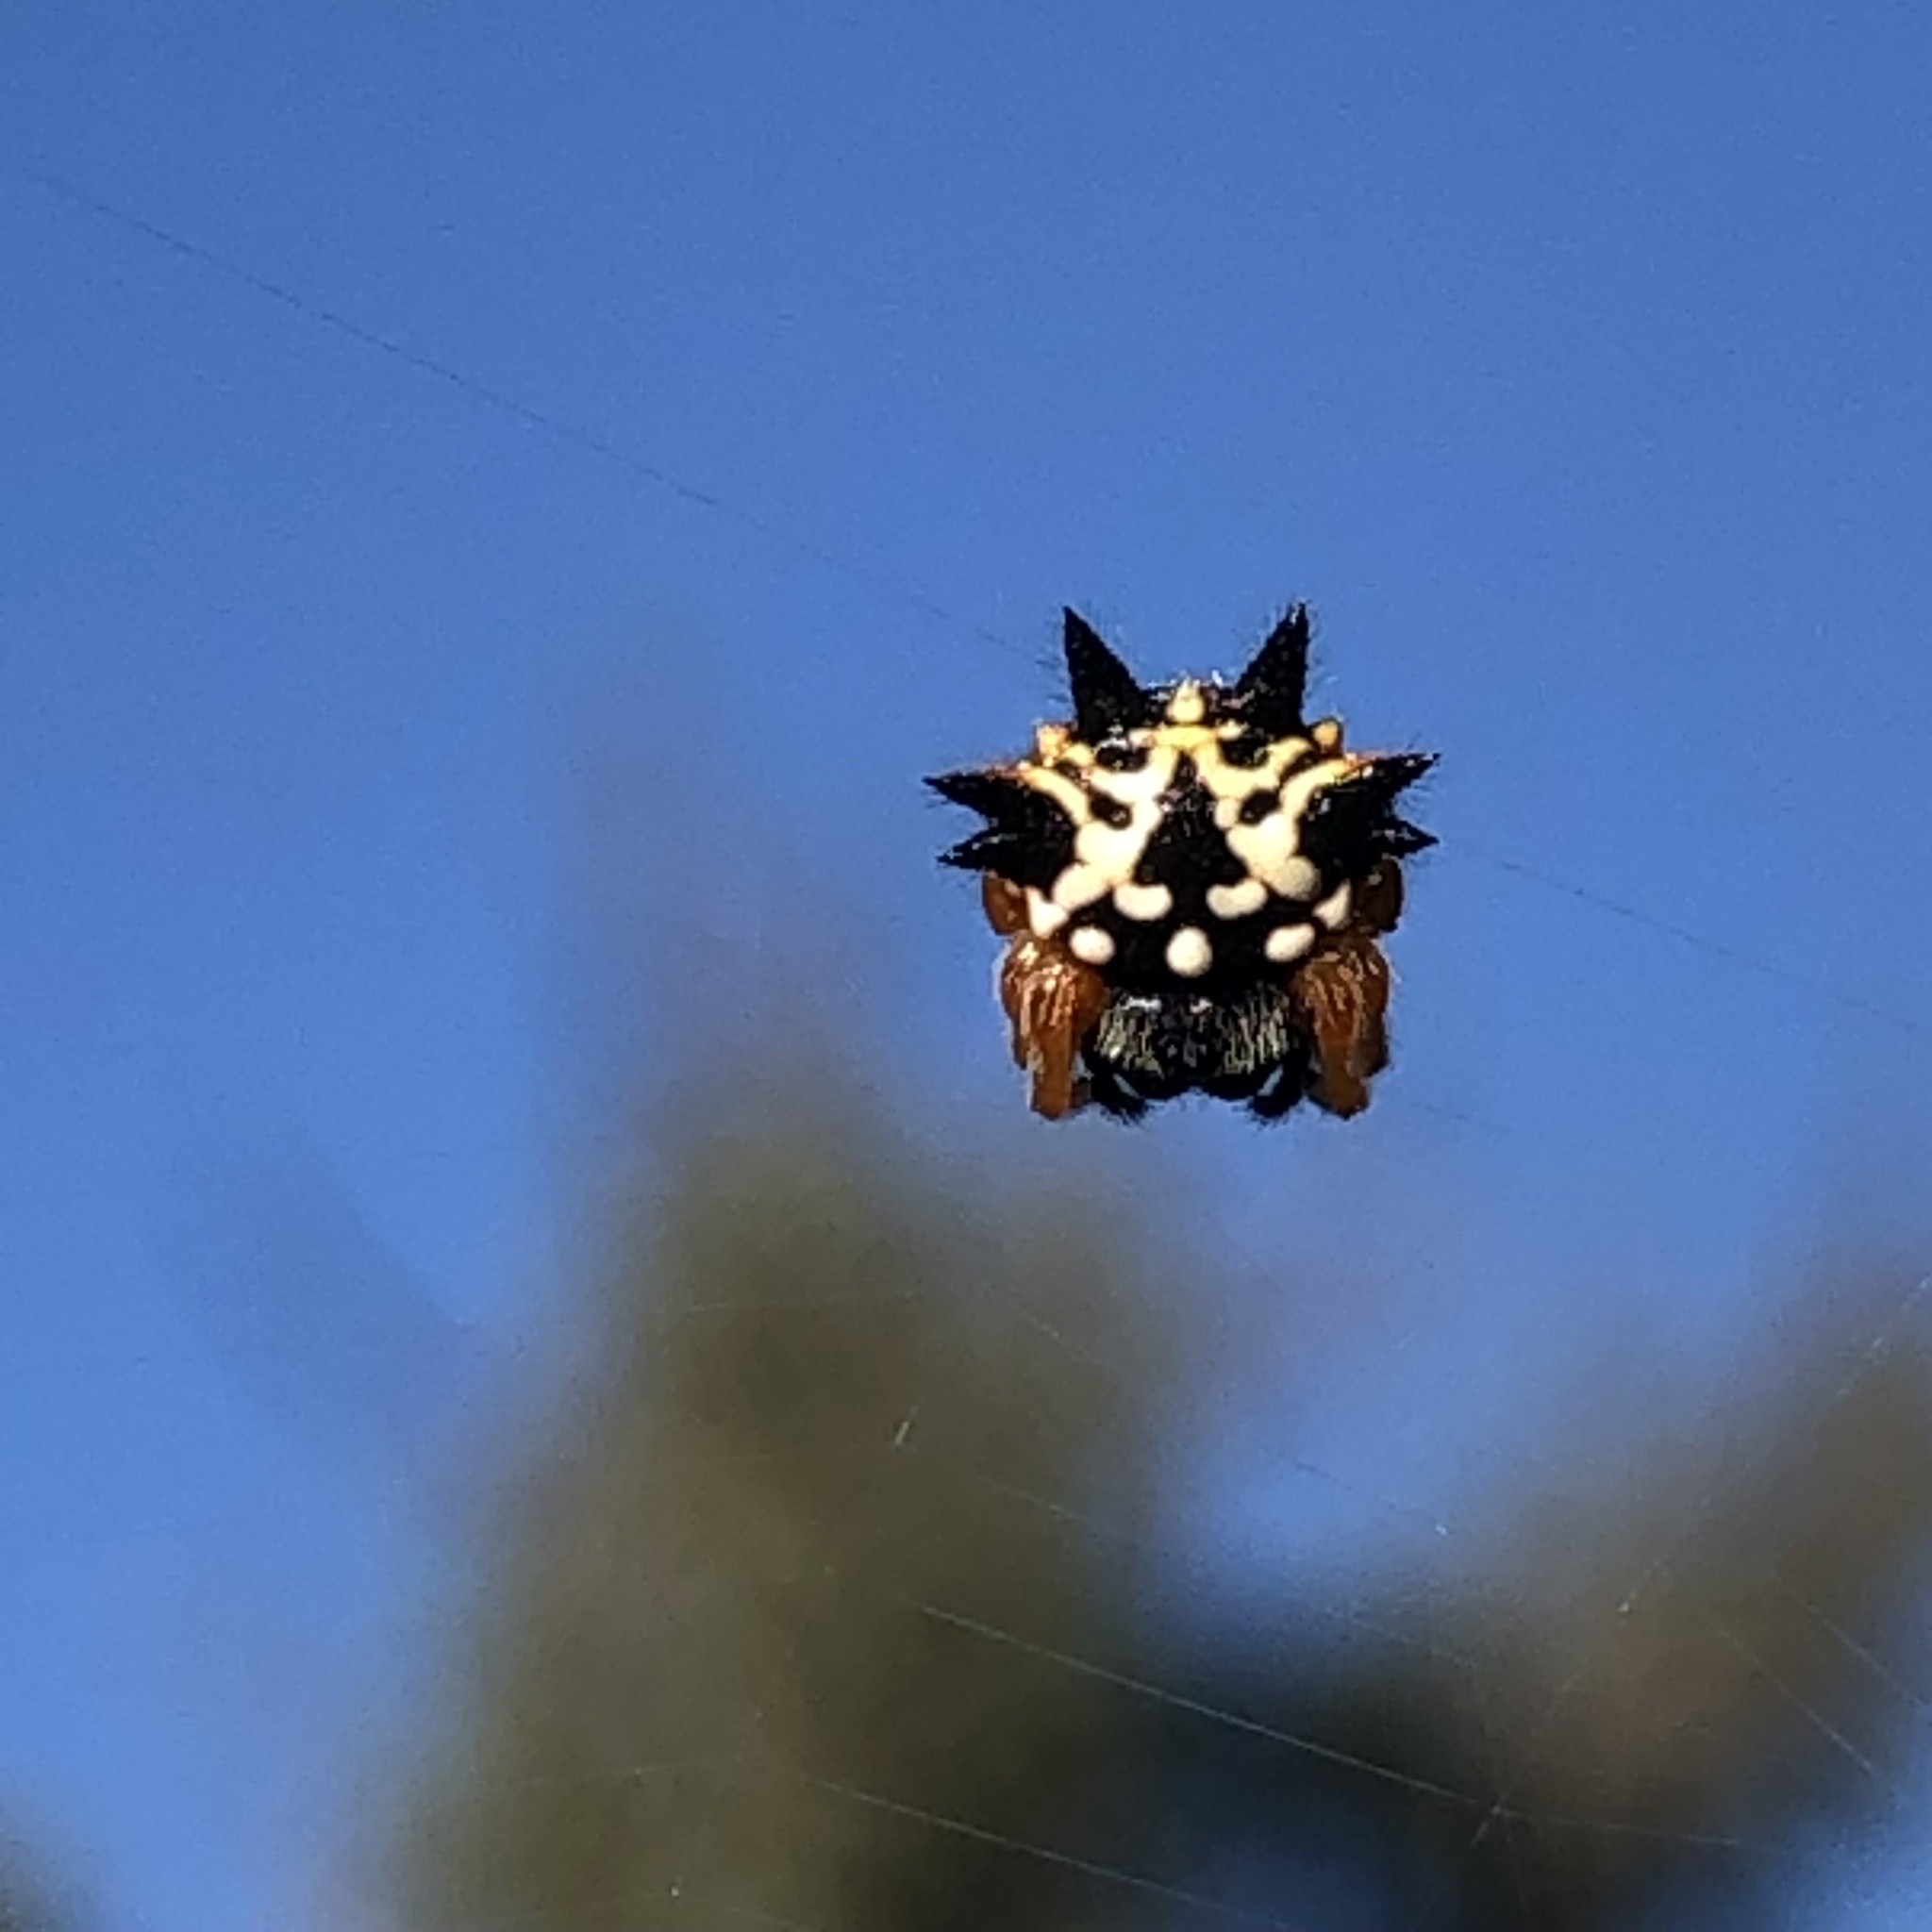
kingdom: Animalia
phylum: Arthropoda
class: Arachnida
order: Araneae
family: Araneidae
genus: Austracantha
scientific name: Austracantha minax
